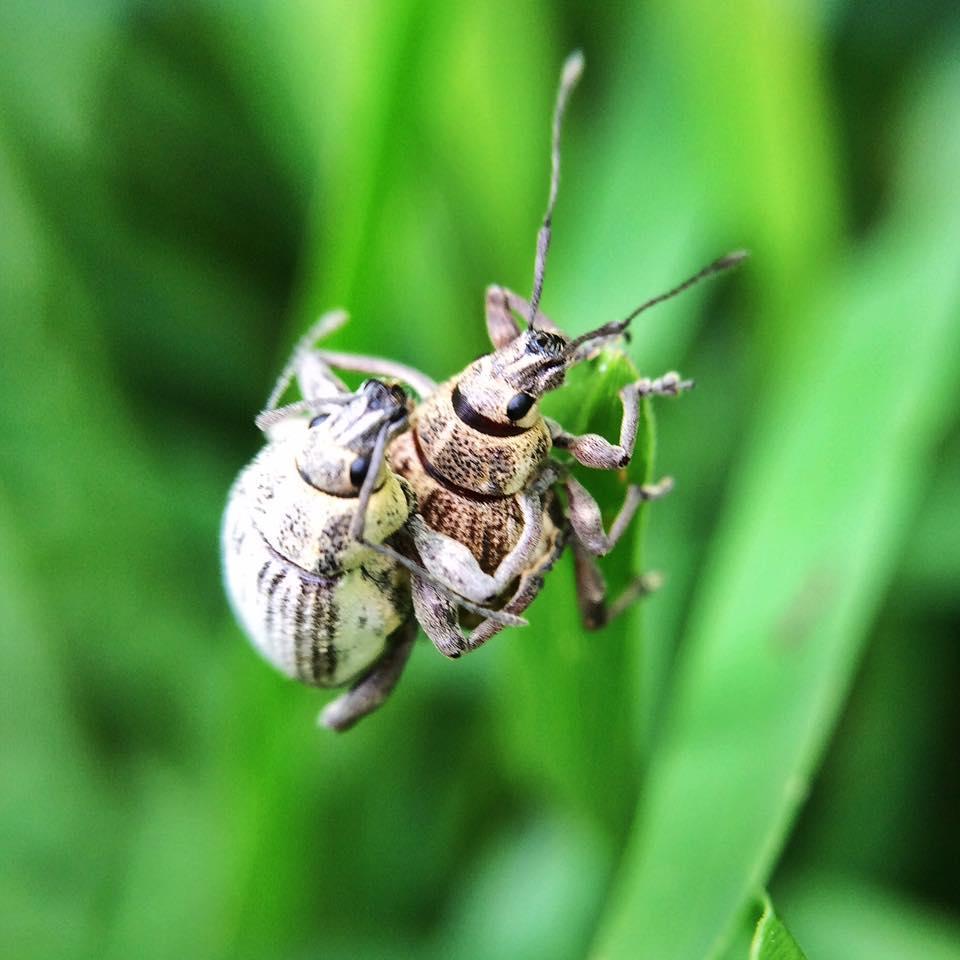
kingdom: Animalia
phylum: Arthropoda
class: Insecta
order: Coleoptera
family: Curculionidae
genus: Sciobius
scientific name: Sciobius pullus
